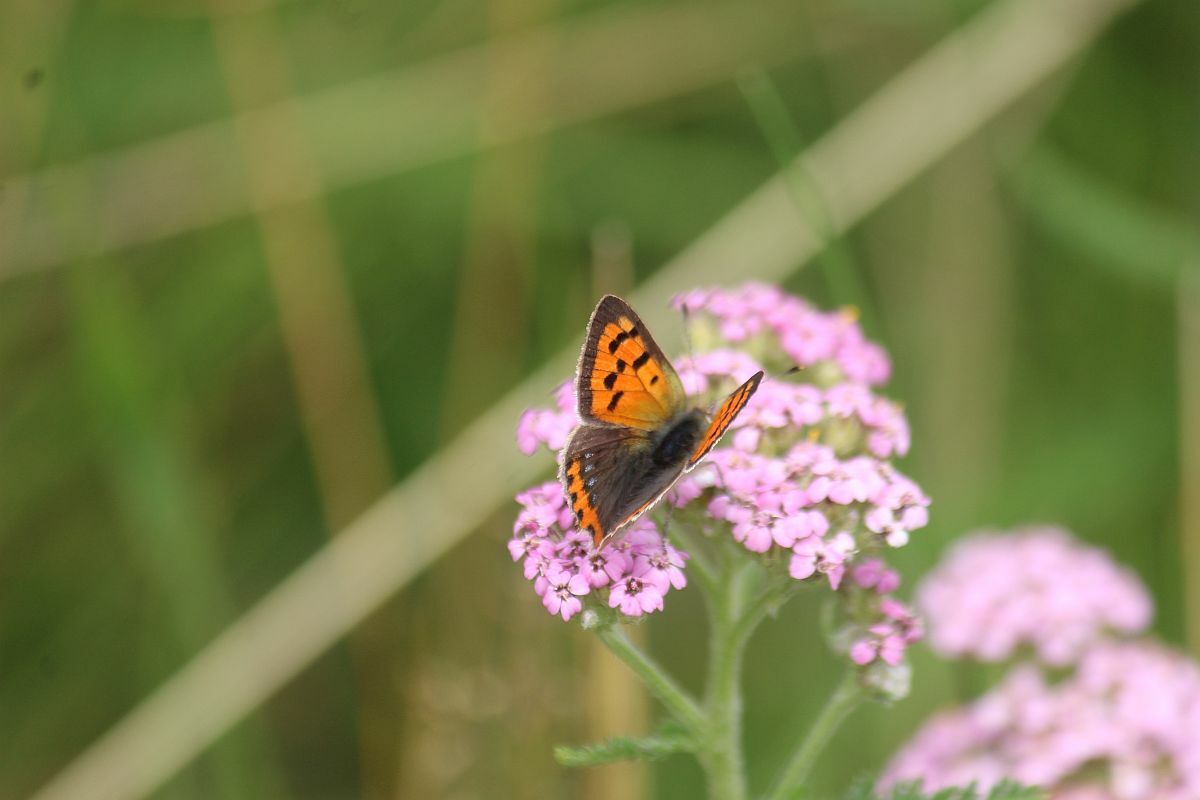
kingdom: Animalia
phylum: Arthropoda
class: Insecta
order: Lepidoptera
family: Lycaenidae
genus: Lycaena
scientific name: Lycaena phlaeas
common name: Small copper
